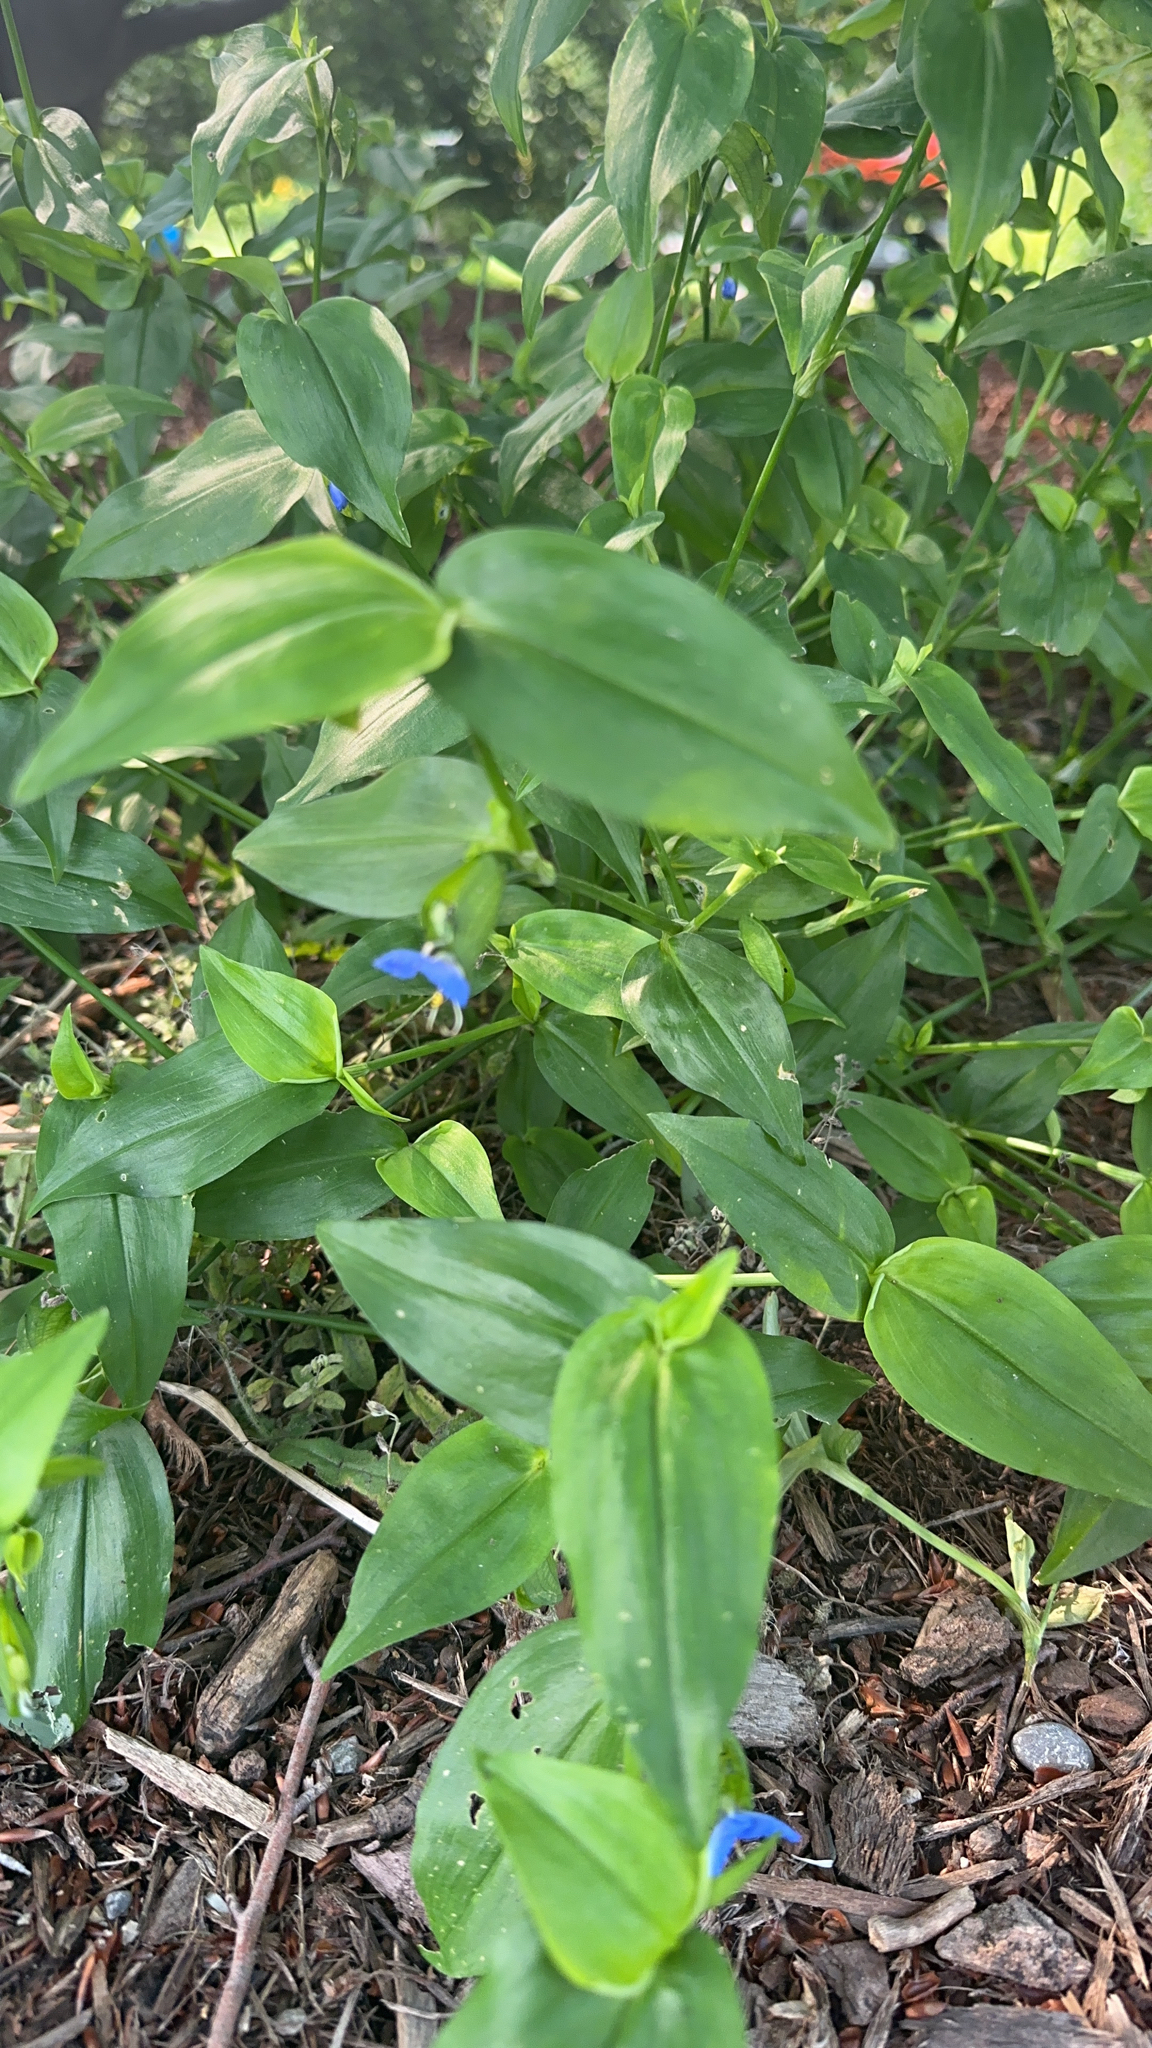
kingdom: Plantae
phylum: Tracheophyta
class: Liliopsida
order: Commelinales
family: Commelinaceae
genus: Commelina
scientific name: Commelina communis
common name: Asiatic dayflower
